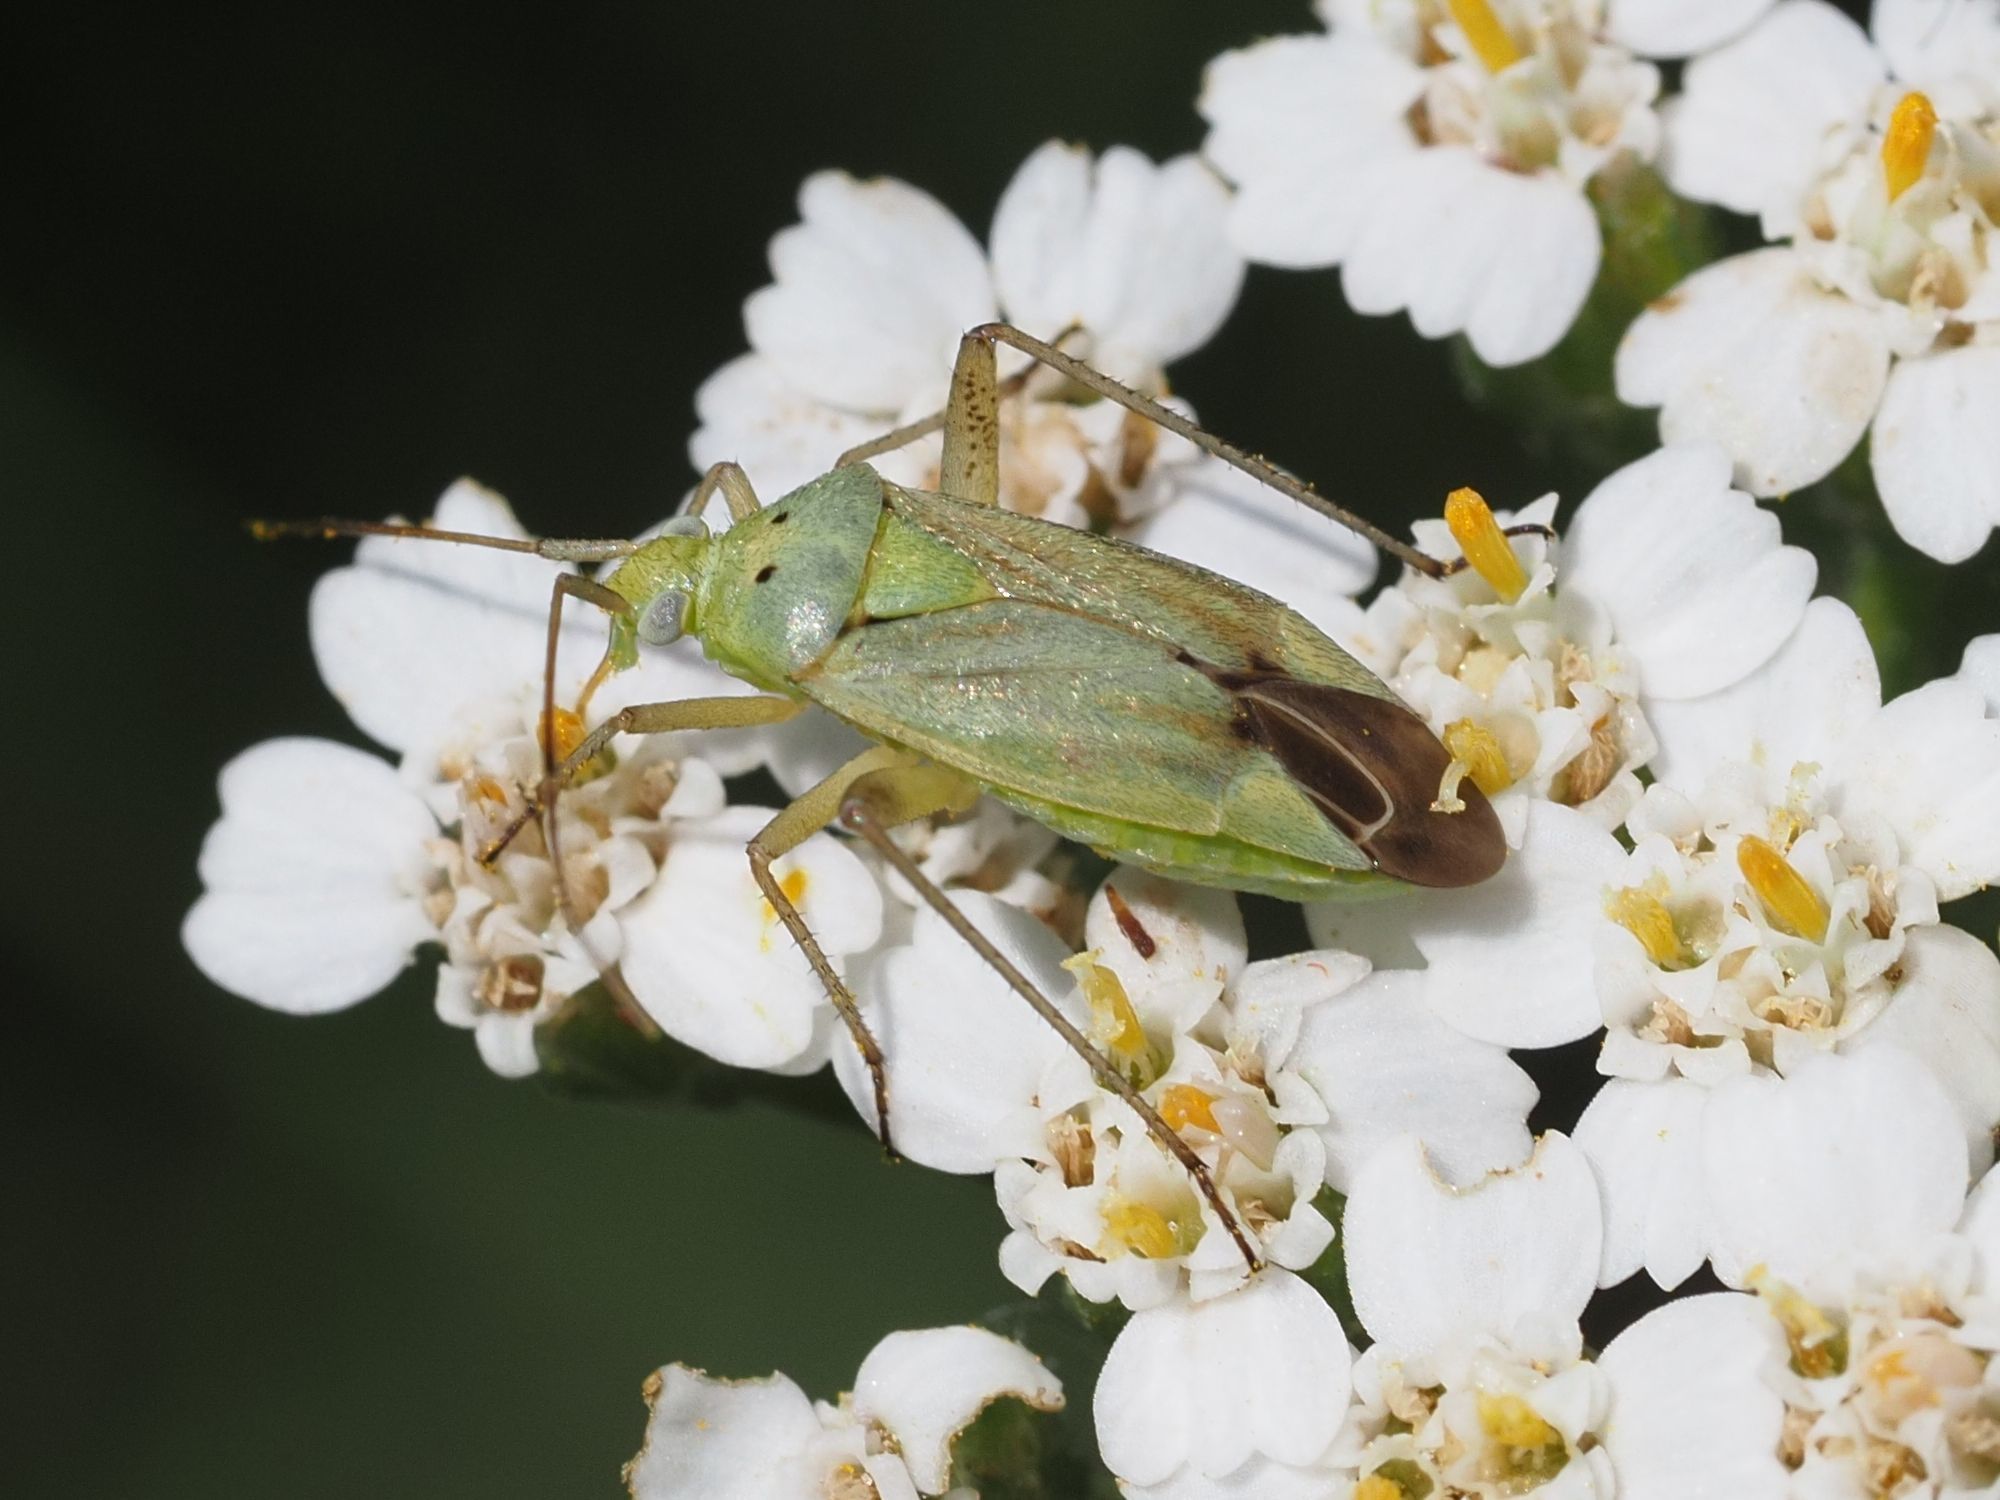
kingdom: Animalia
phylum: Arthropoda
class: Insecta
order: Hemiptera
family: Miridae
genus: Closterotomus
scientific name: Closterotomus norvegicus
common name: Plant bug
